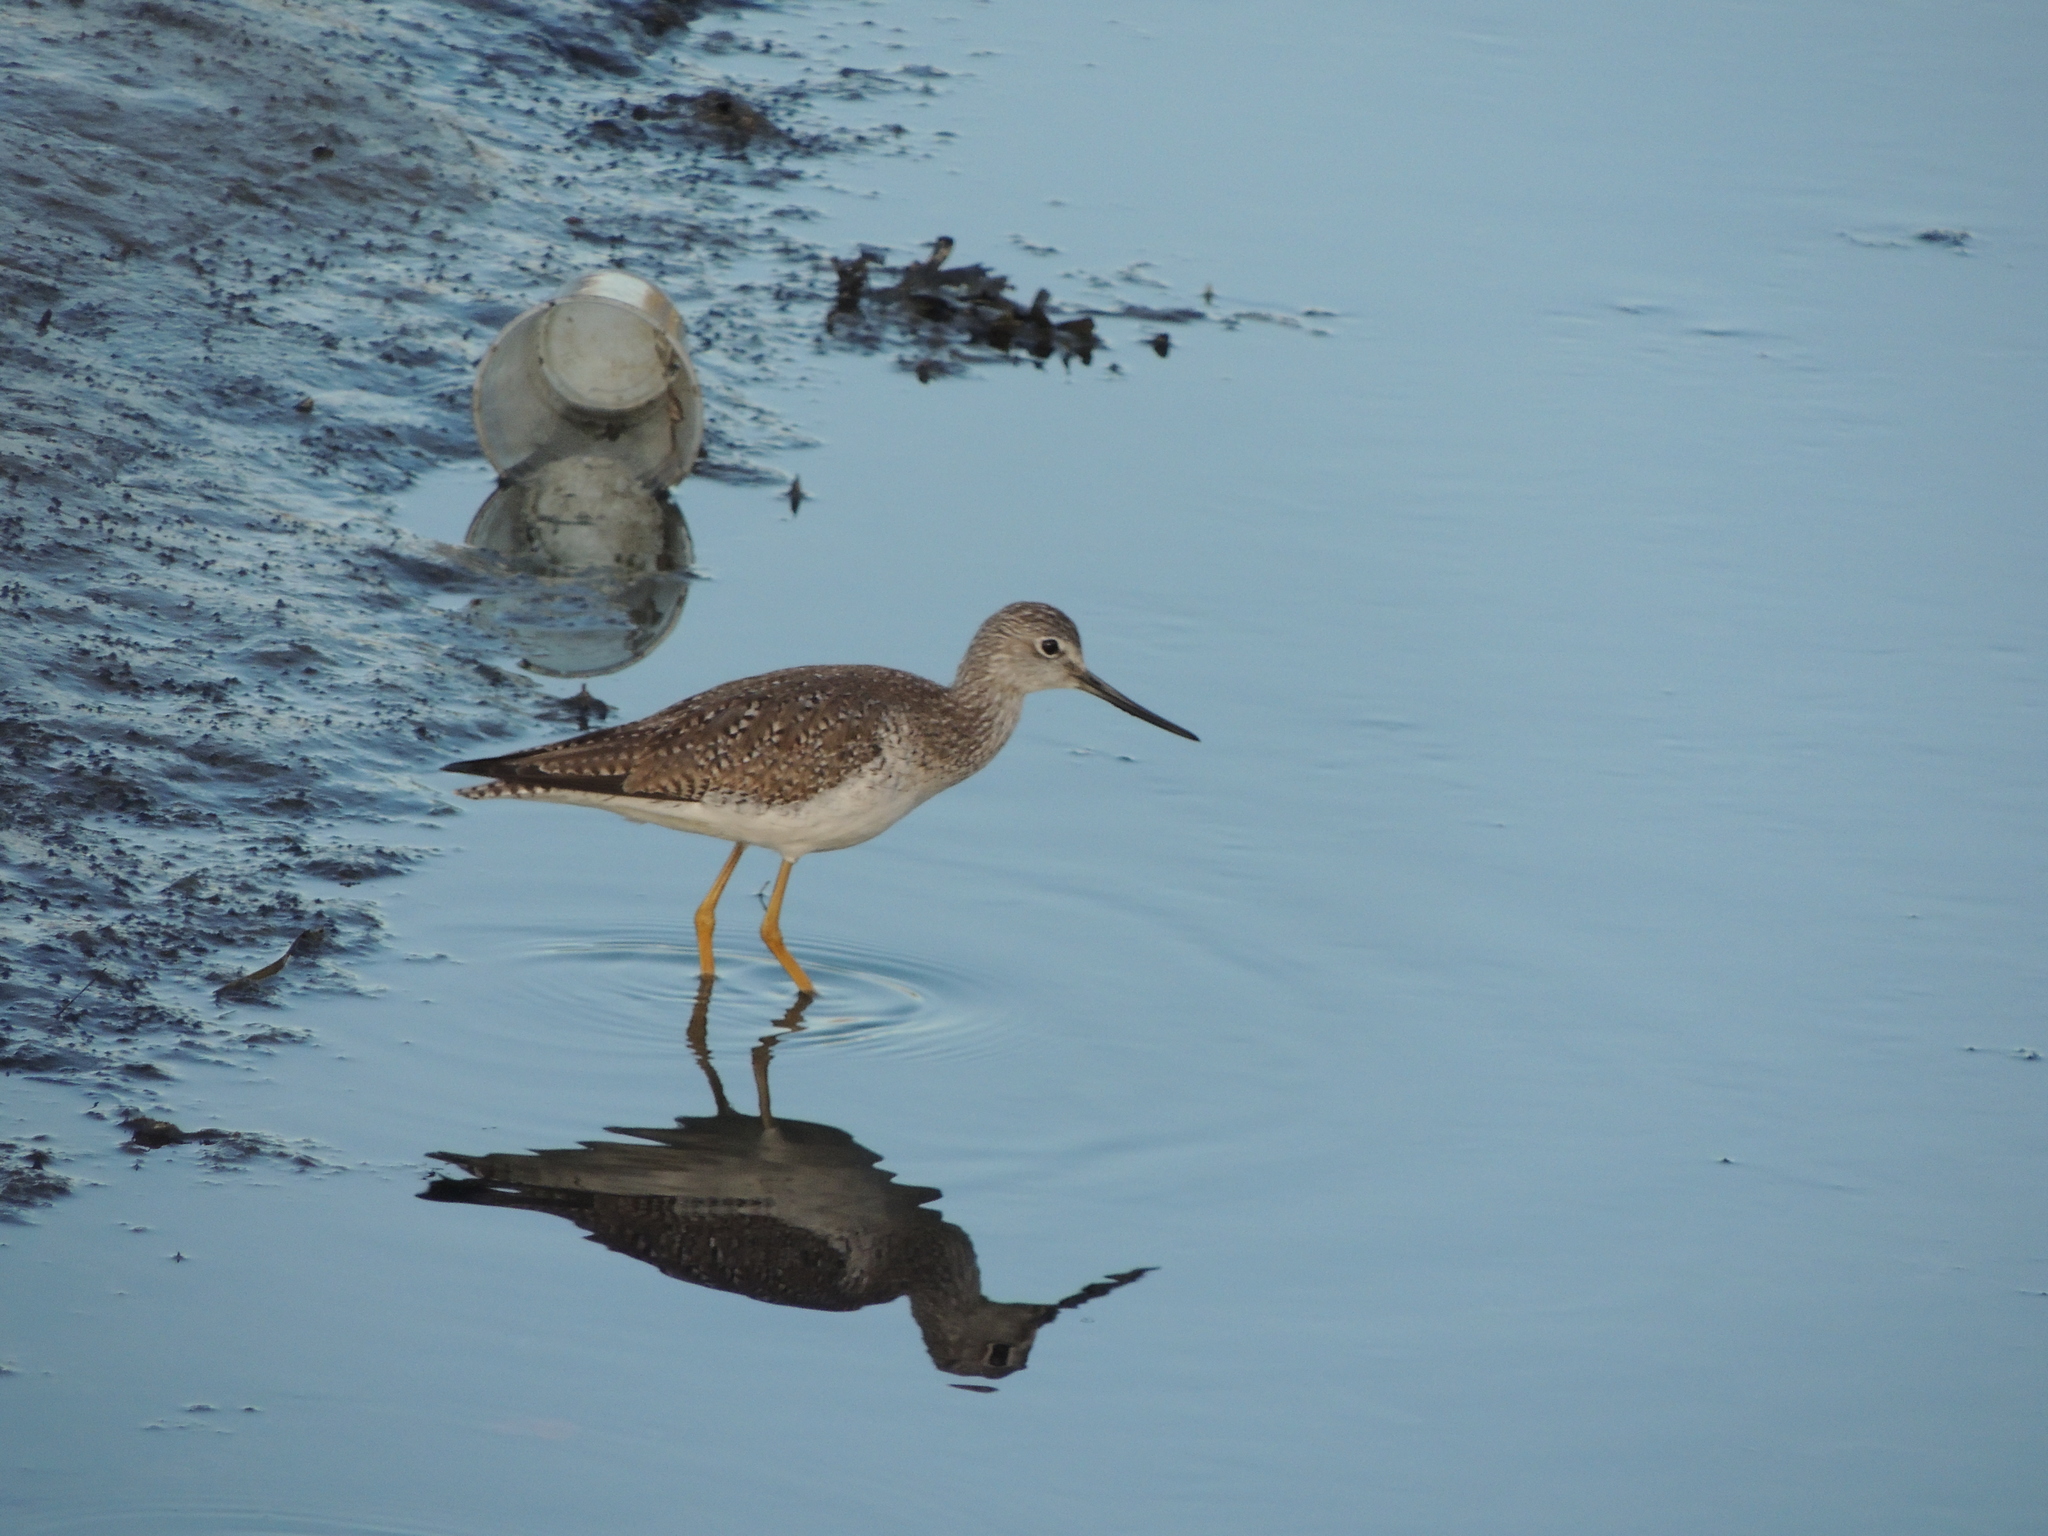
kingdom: Animalia
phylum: Chordata
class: Aves
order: Charadriiformes
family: Scolopacidae
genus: Tringa
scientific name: Tringa melanoleuca
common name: Greater yellowlegs
